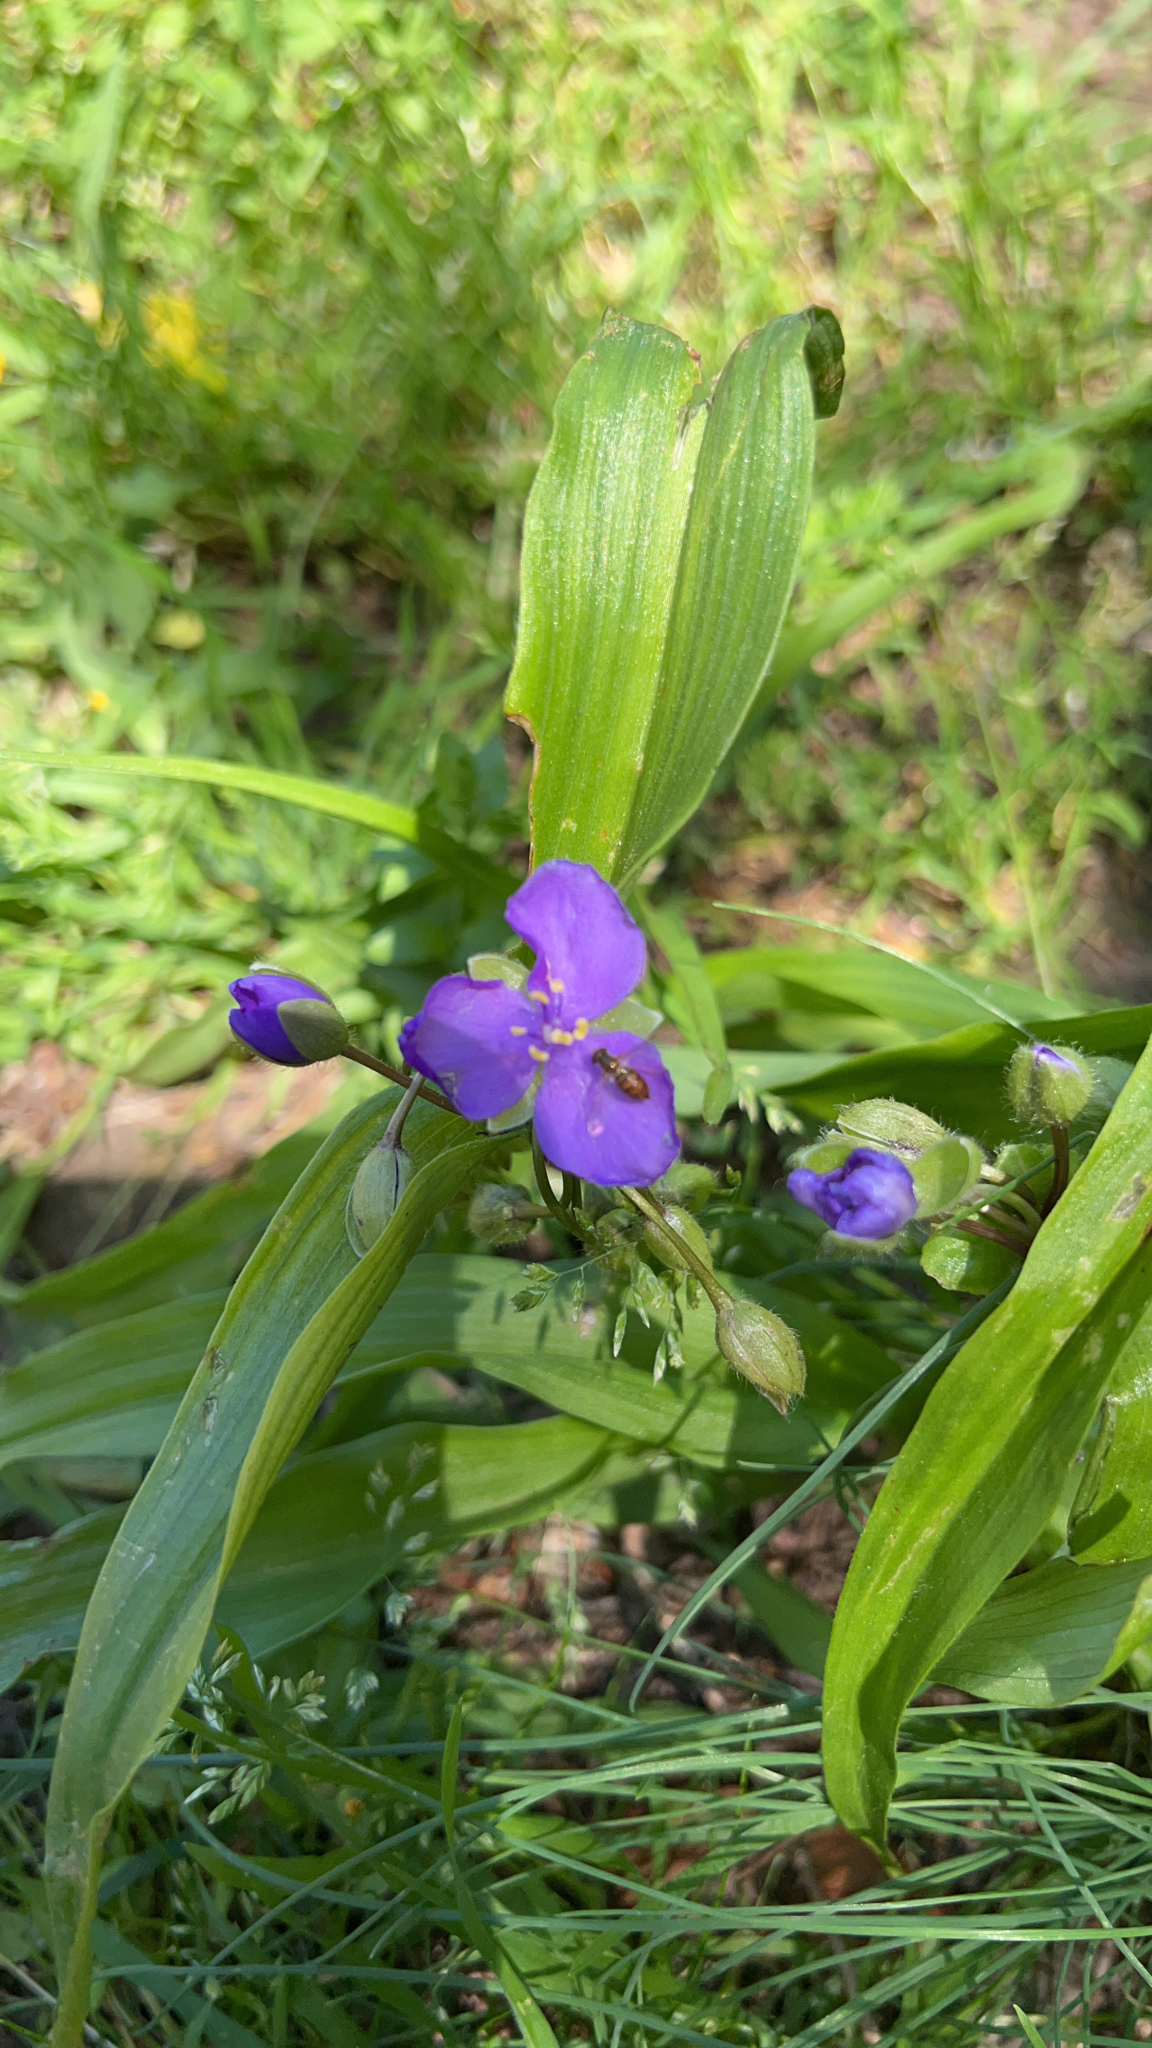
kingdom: Plantae
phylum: Tracheophyta
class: Liliopsida
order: Commelinales
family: Commelinaceae
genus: Tradescantia
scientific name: Tradescantia ernestiana
